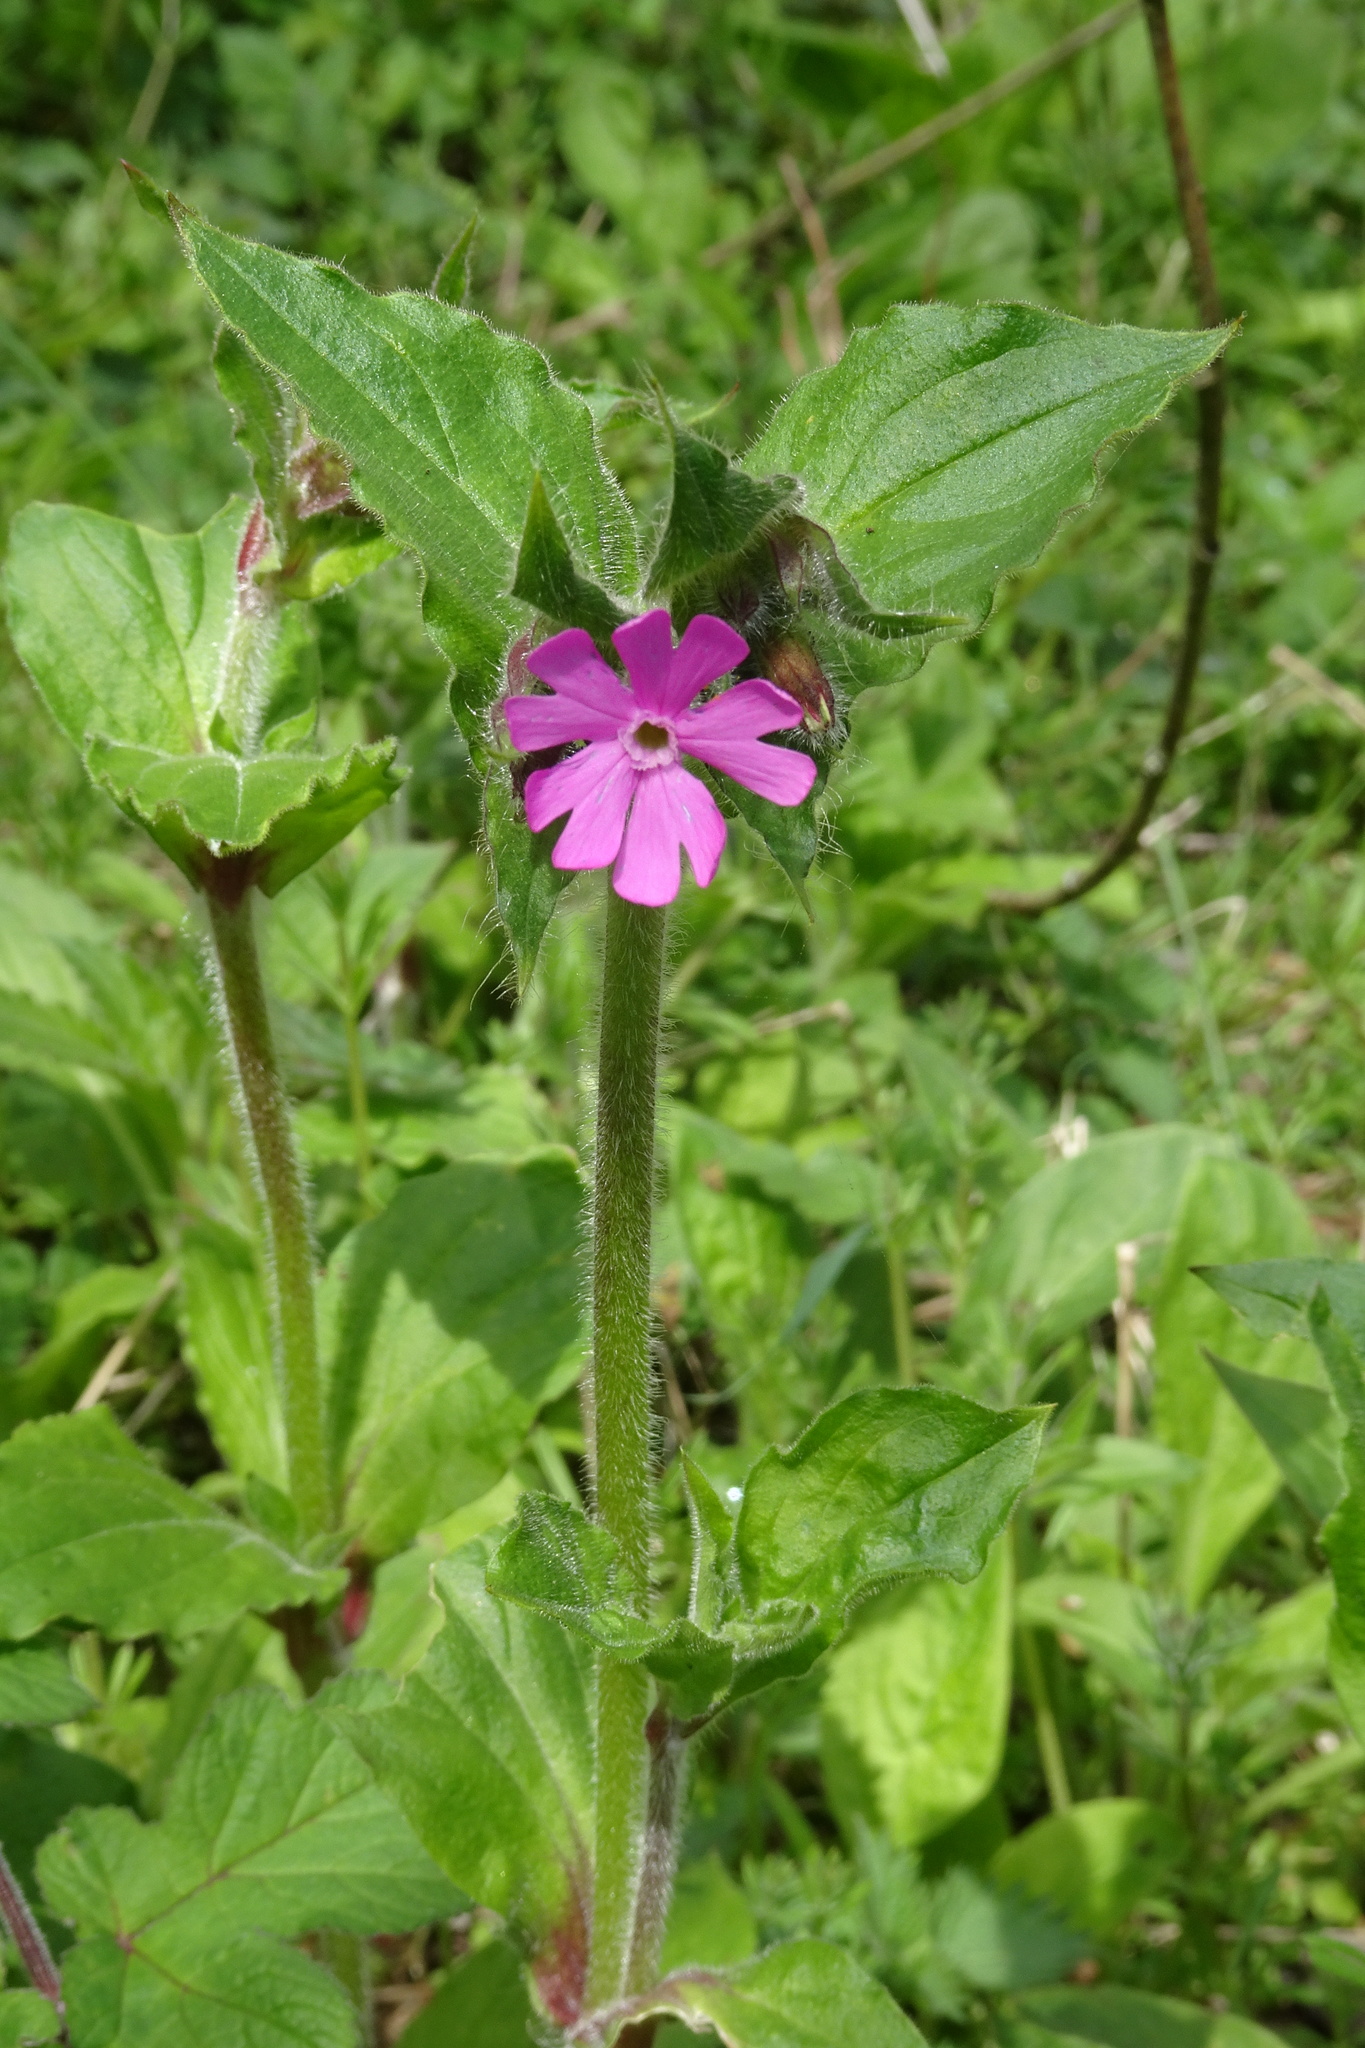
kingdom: Plantae
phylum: Tracheophyta
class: Magnoliopsida
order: Caryophyllales
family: Caryophyllaceae
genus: Silene
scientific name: Silene dioica
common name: Red campion
